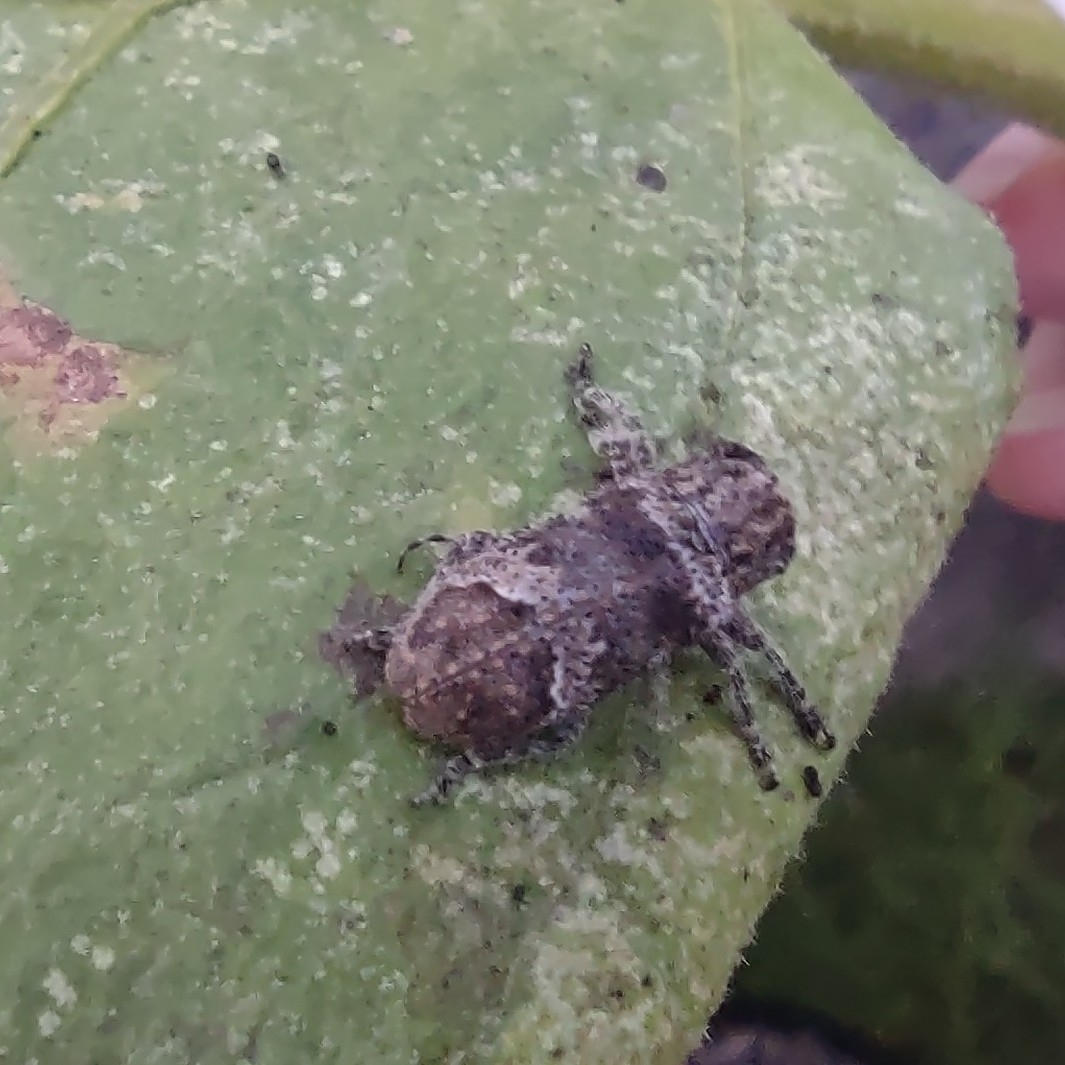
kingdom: Animalia
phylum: Arthropoda
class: Insecta
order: Coleoptera
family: Cerambycidae
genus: Rhytiphora
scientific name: Rhytiphora bankii
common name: Prosoplus long horned beetle
